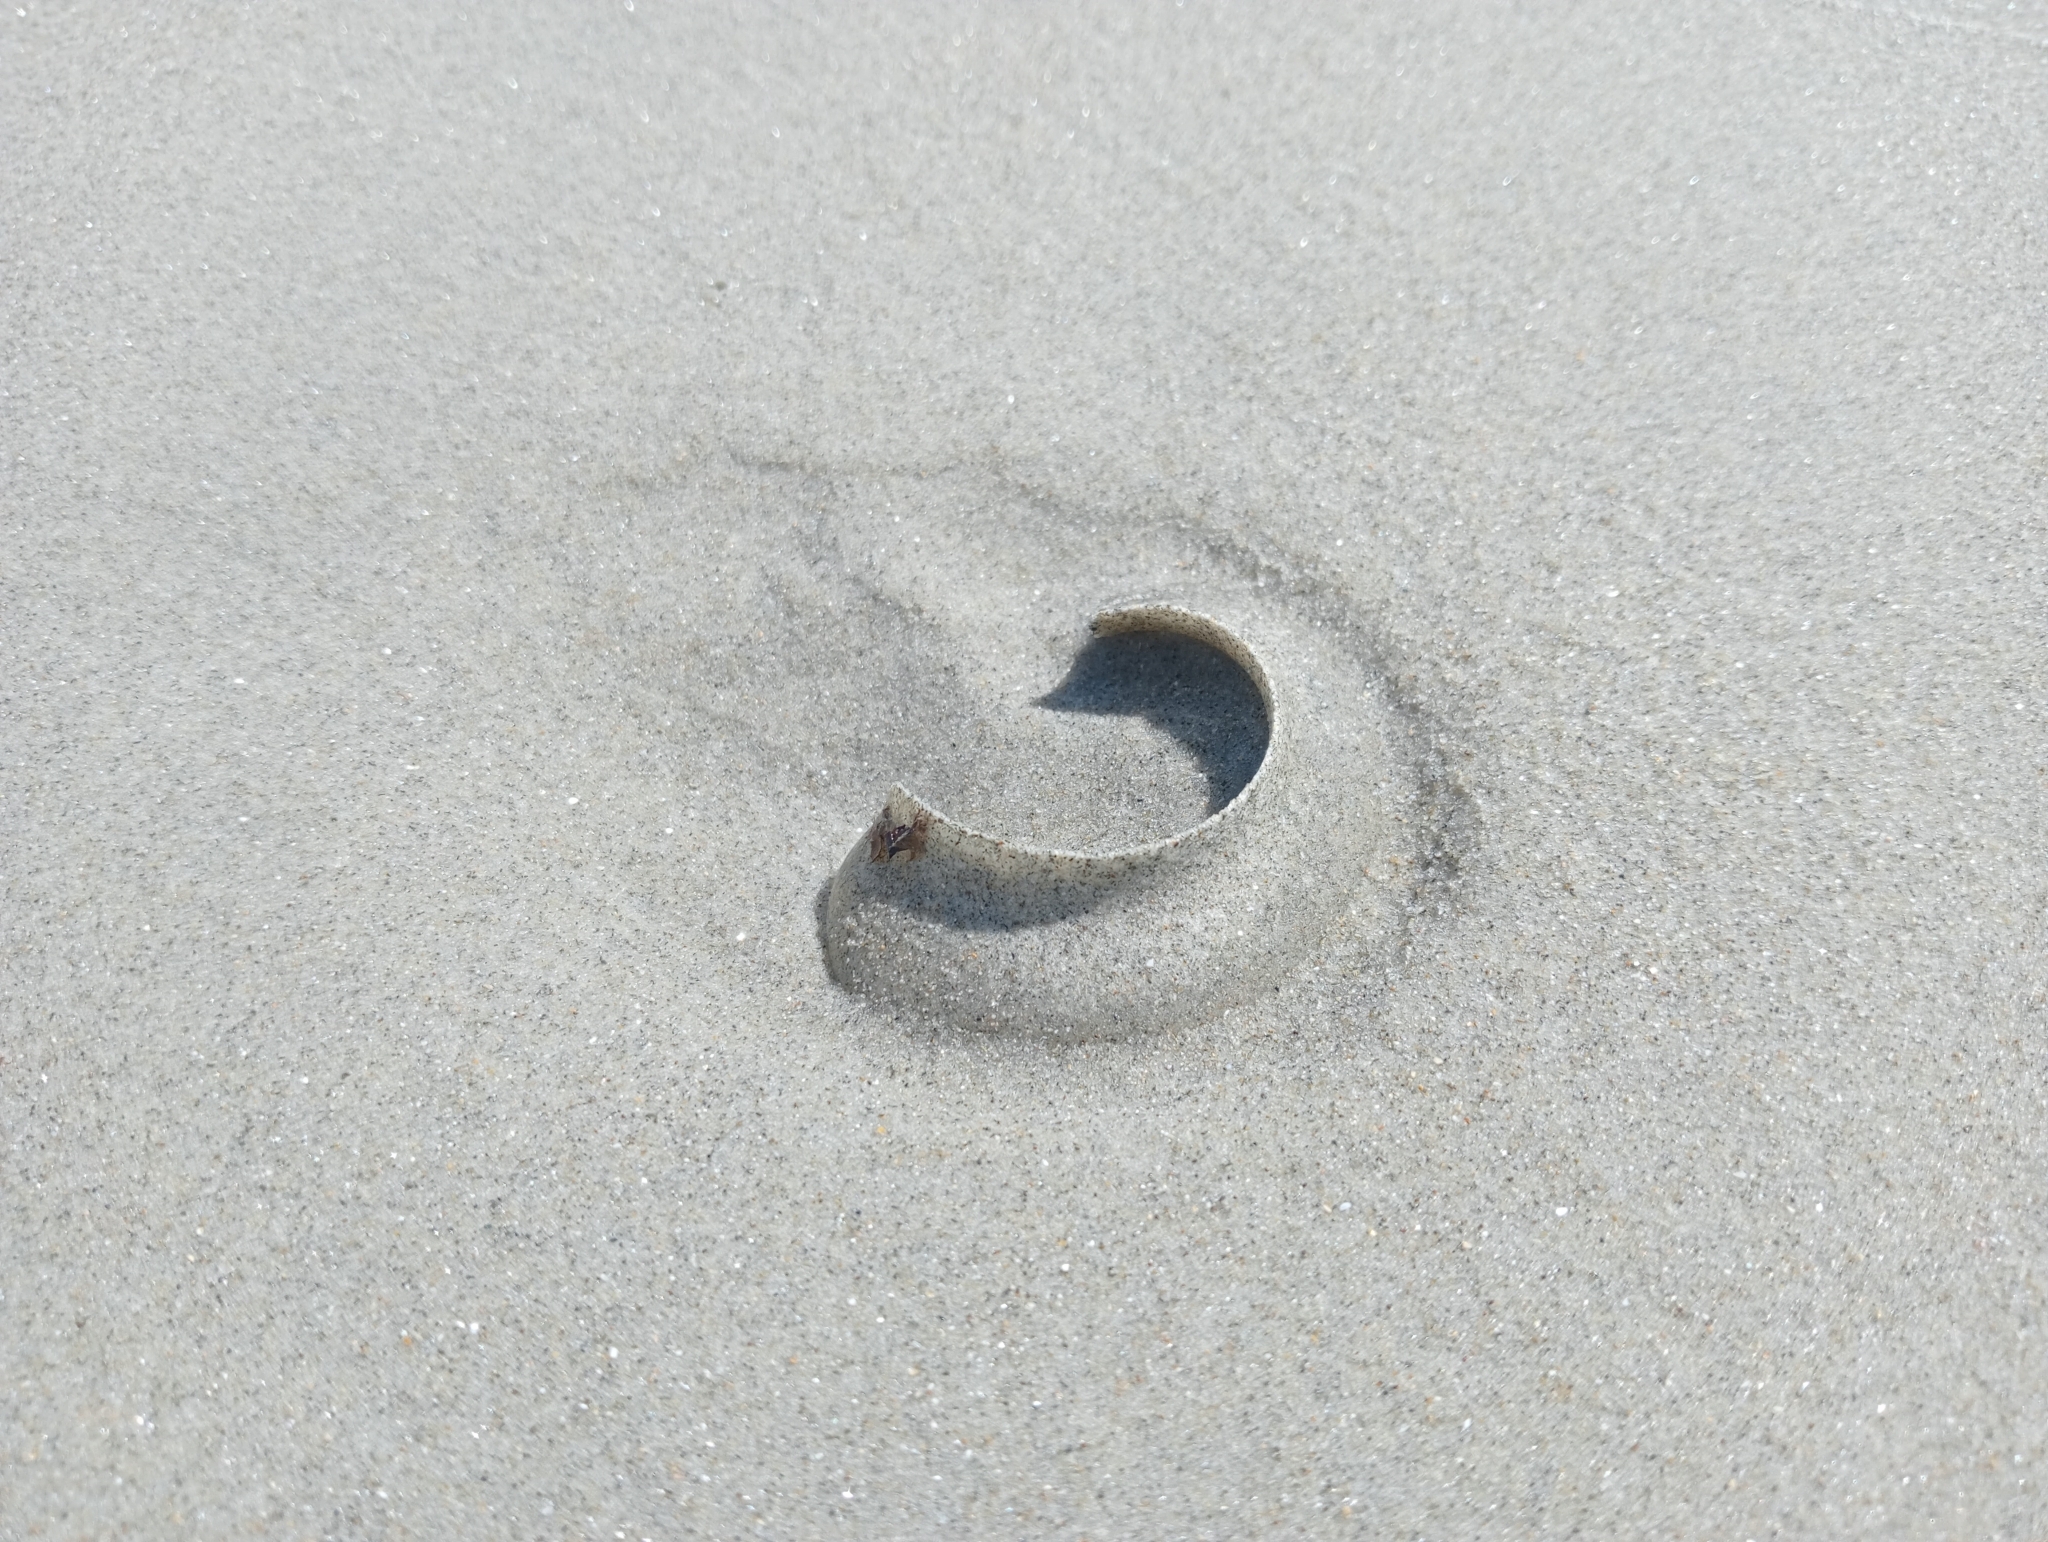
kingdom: Animalia
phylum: Mollusca
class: Gastropoda
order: Littorinimorpha
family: Naticidae
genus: Tanea
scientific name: Tanea zelandica
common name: New zealand moonsnail
